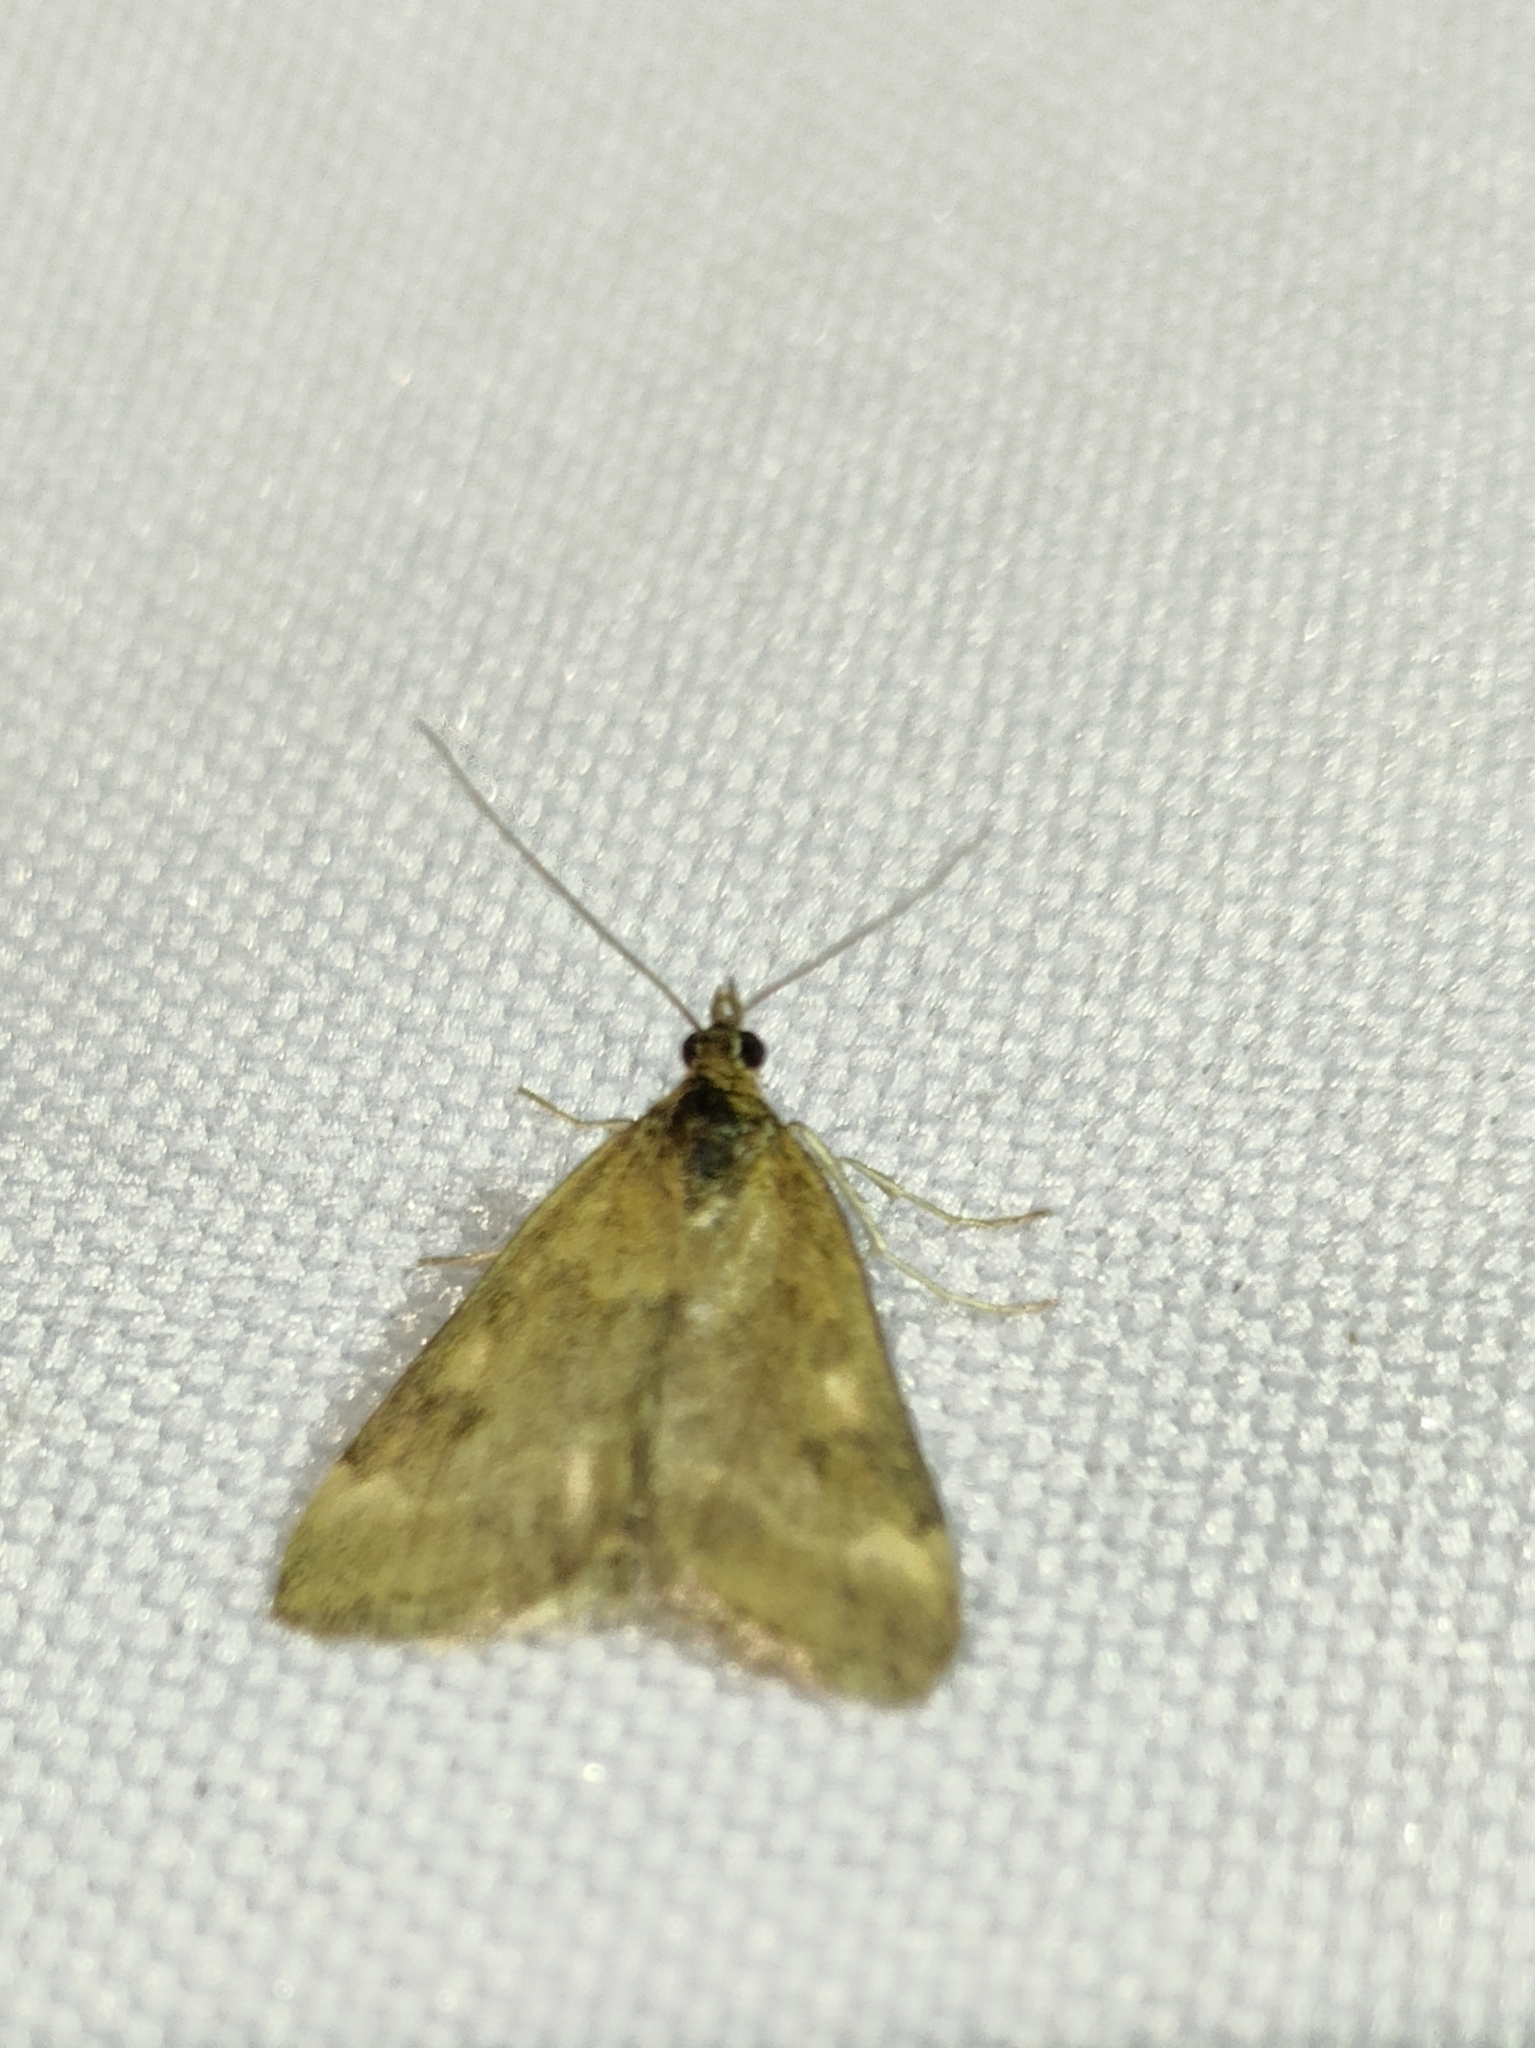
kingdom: Animalia
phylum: Arthropoda
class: Insecta
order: Lepidoptera
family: Crambidae
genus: Pyrausta
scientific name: Pyrausta despicata
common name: Straw-barred pearl
